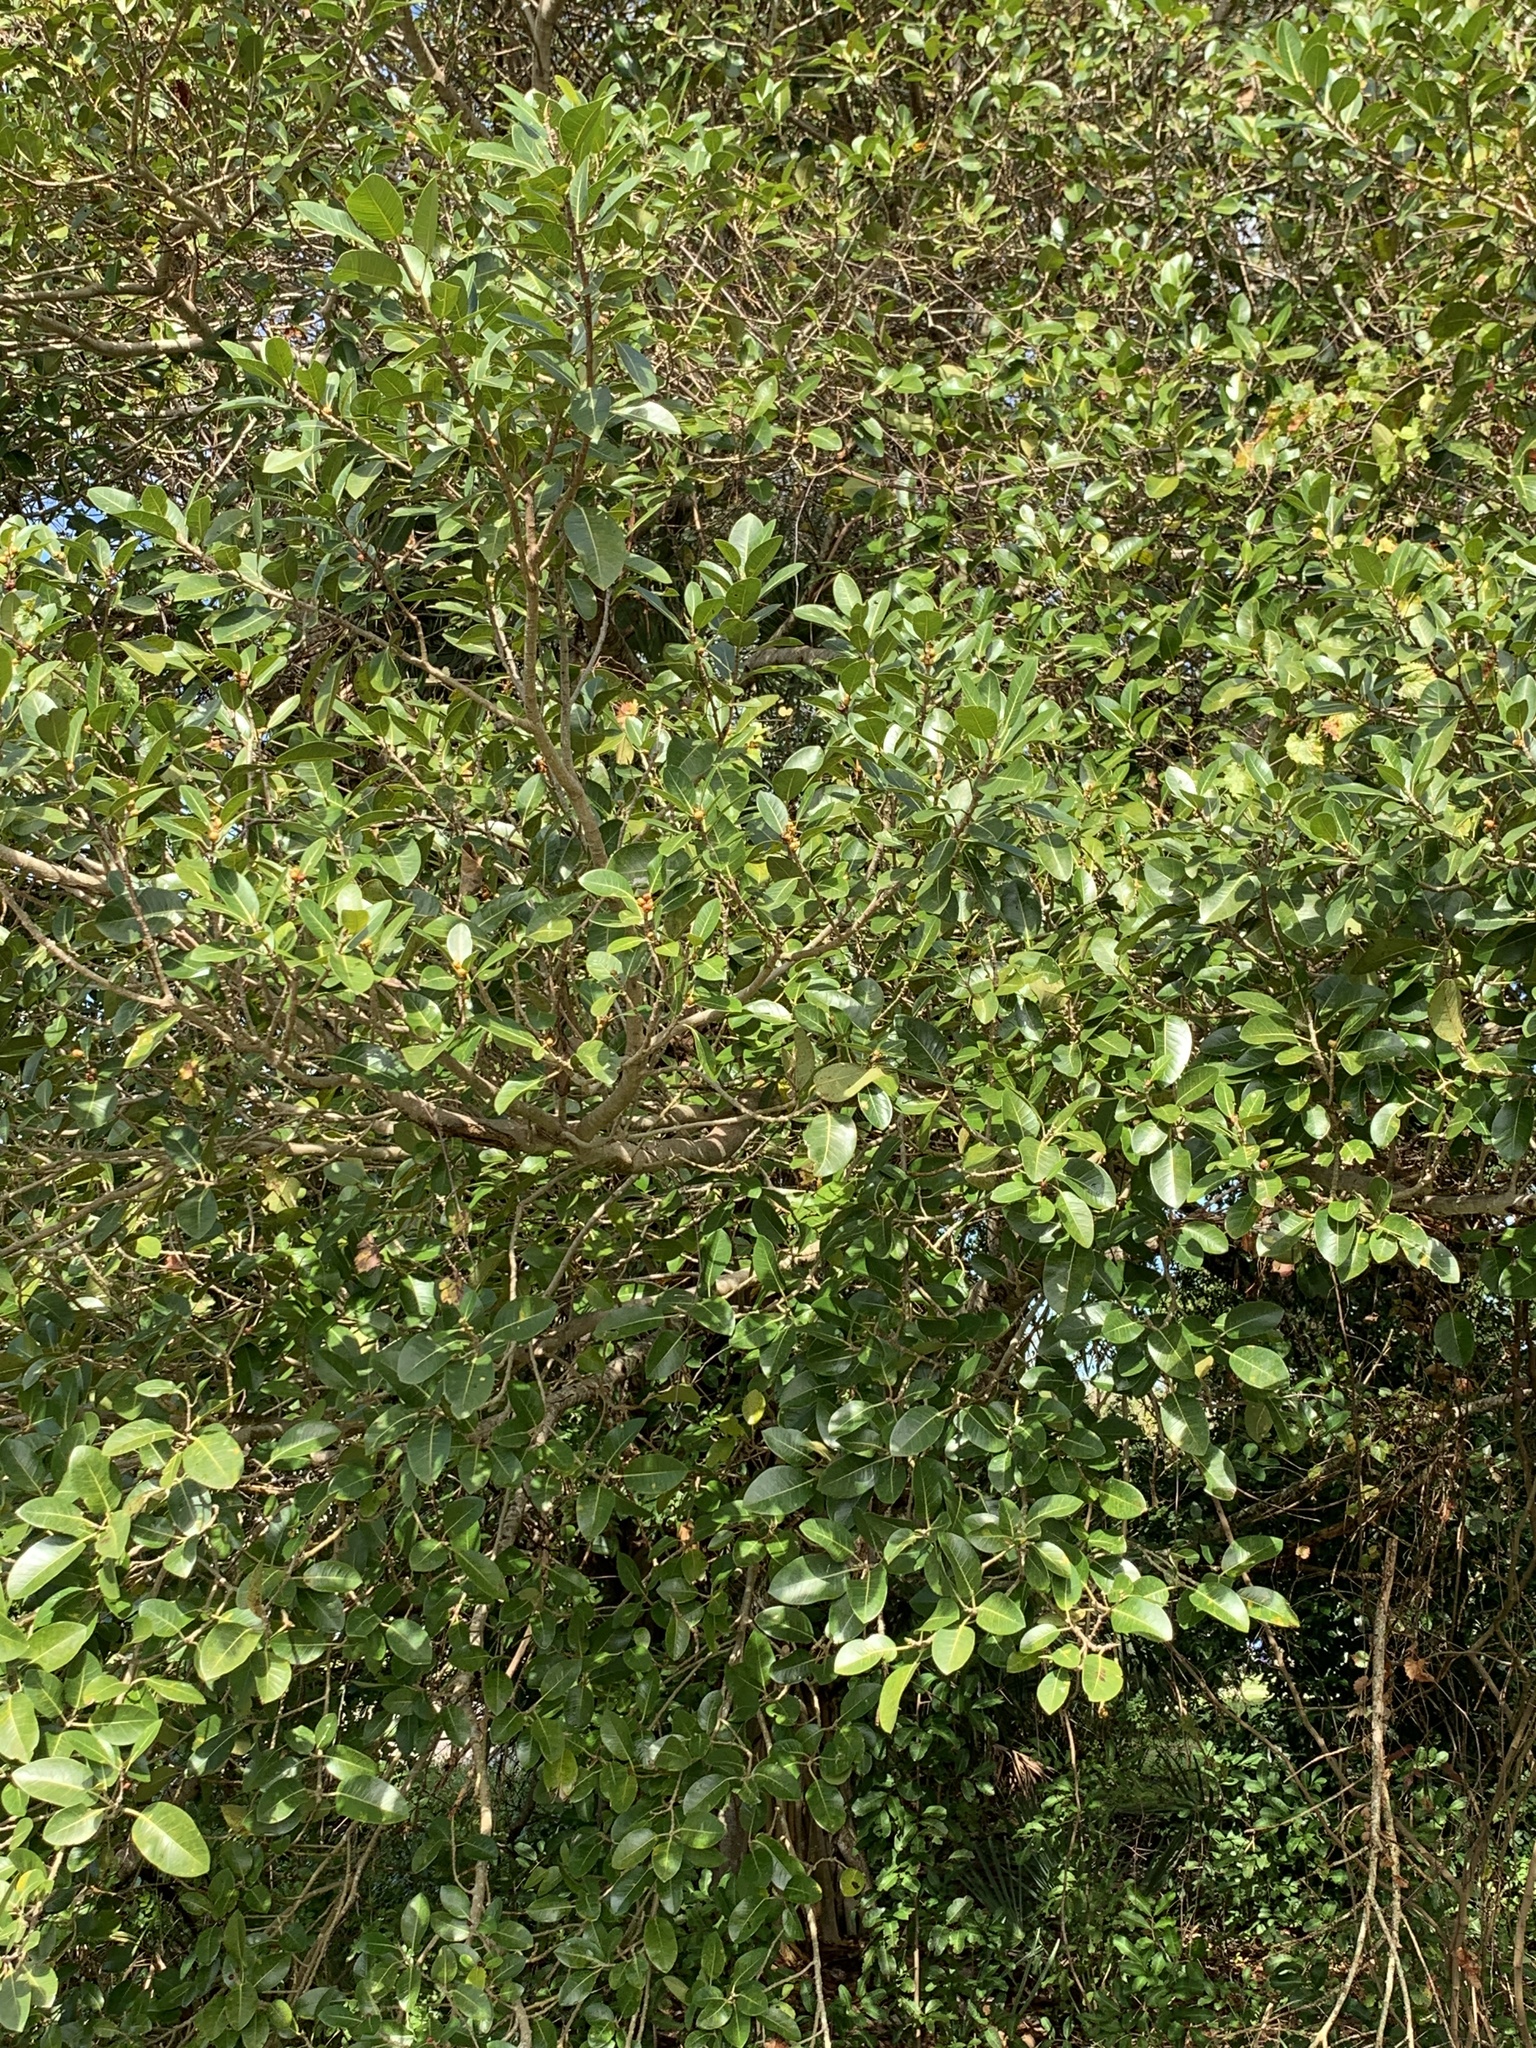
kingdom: Plantae
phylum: Tracheophyta
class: Magnoliopsida
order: Rosales
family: Moraceae
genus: Ficus
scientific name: Ficus aurea
